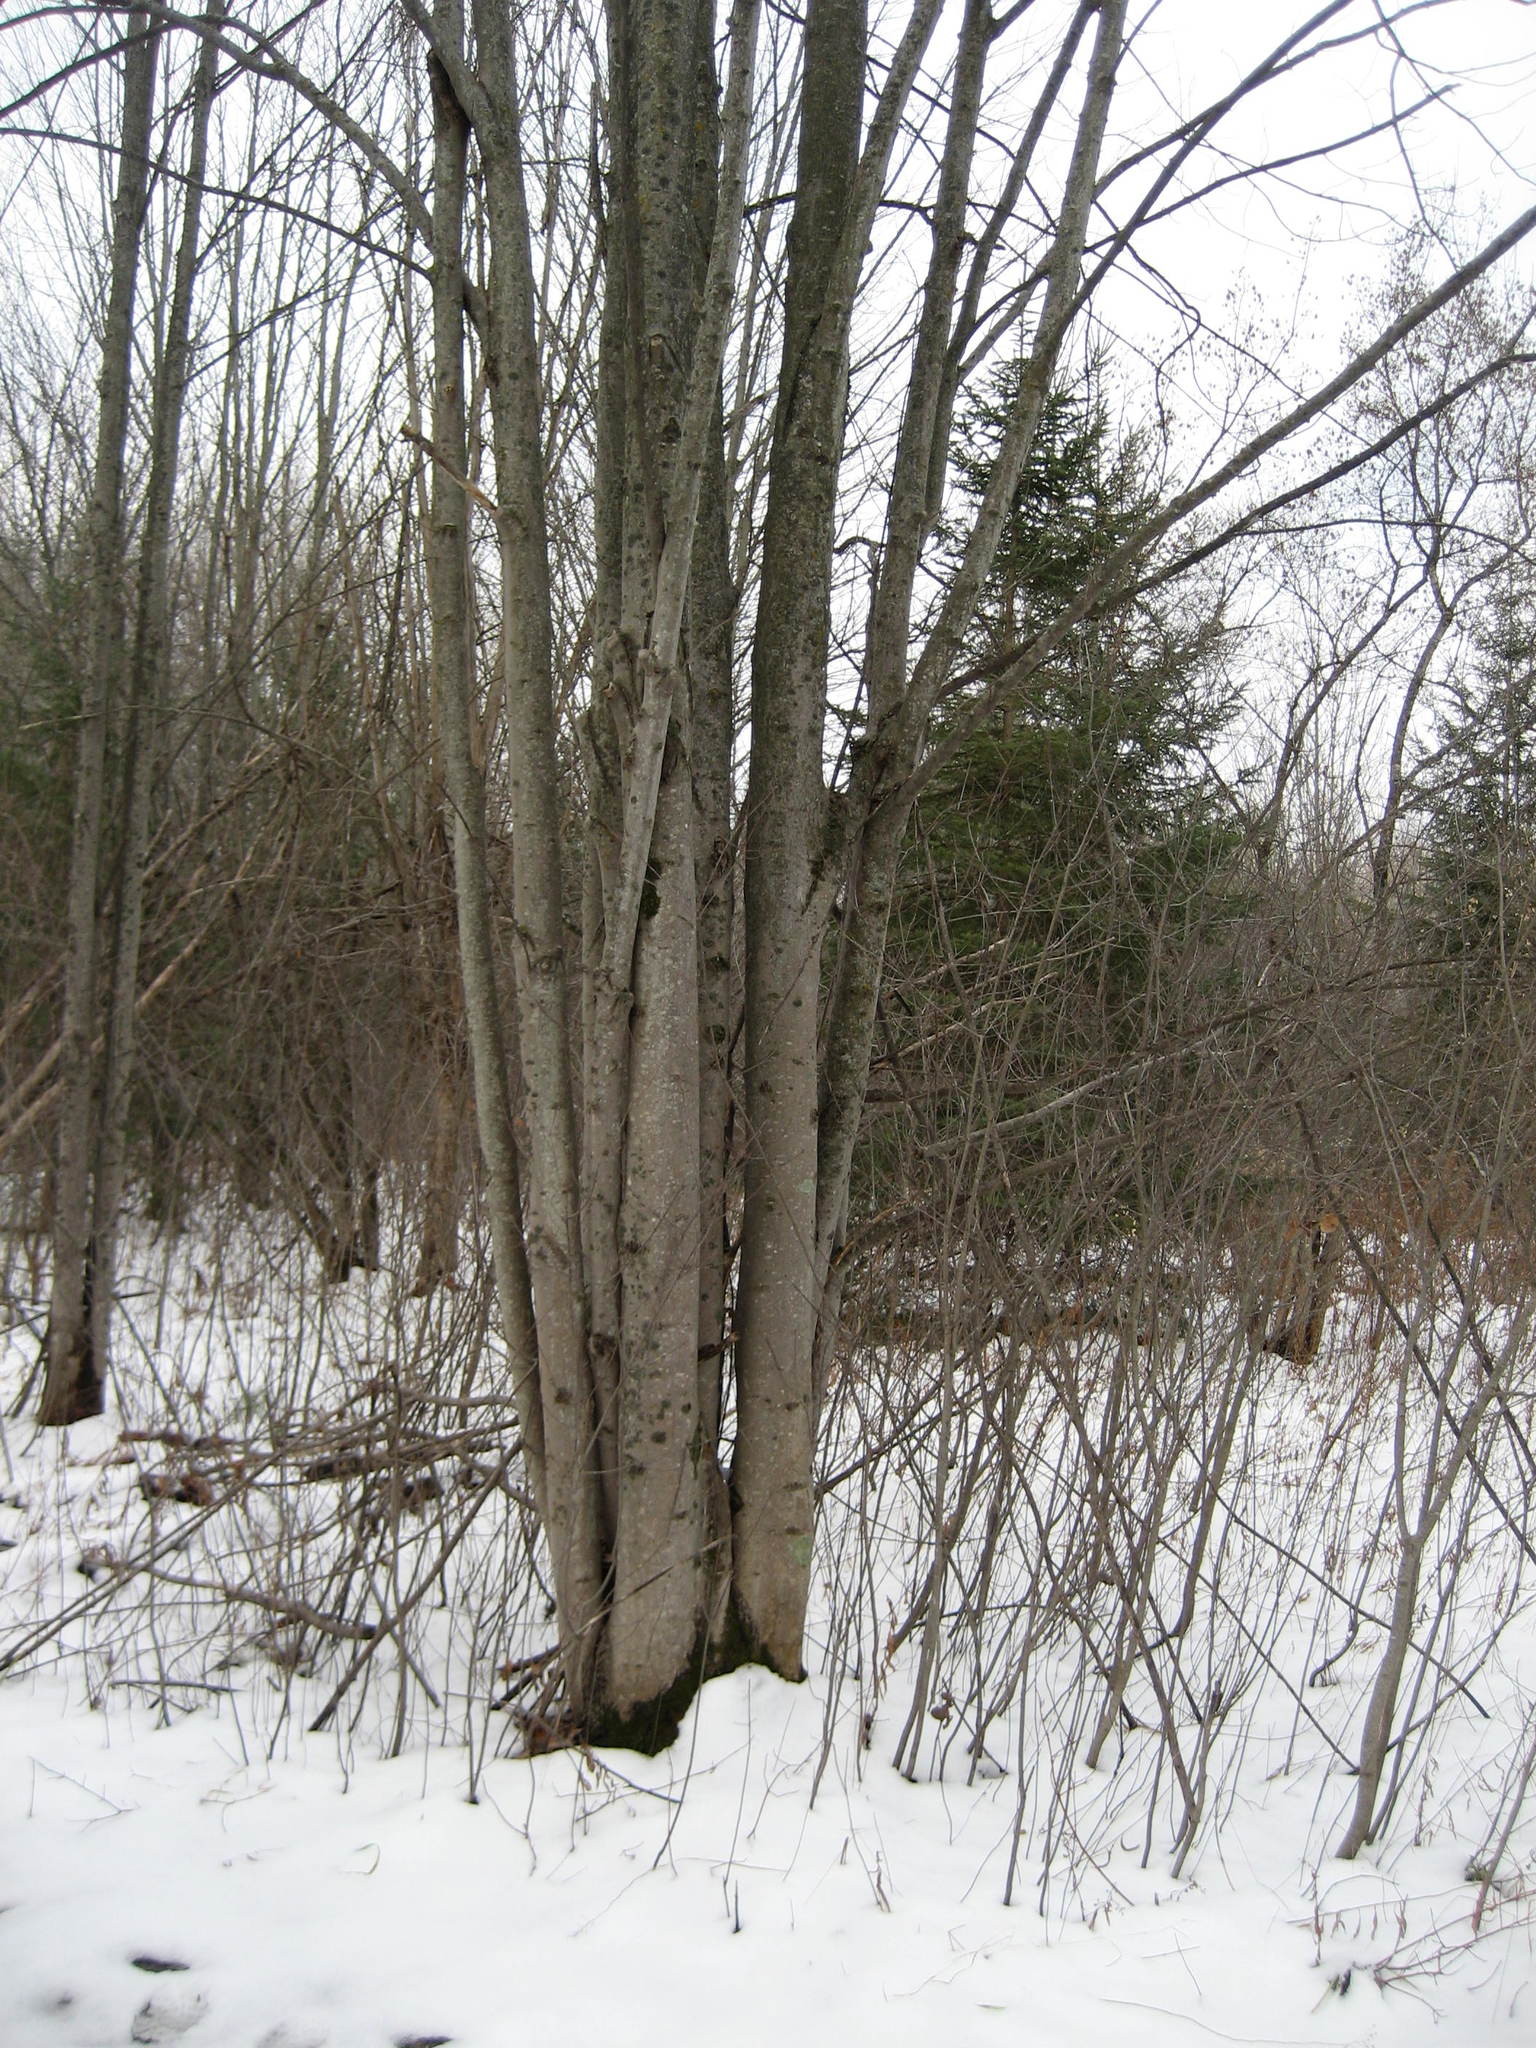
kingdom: Plantae
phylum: Tracheophyta
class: Magnoliopsida
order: Sapindales
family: Sapindaceae
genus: Acer
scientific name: Acer rubrum
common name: Red maple
